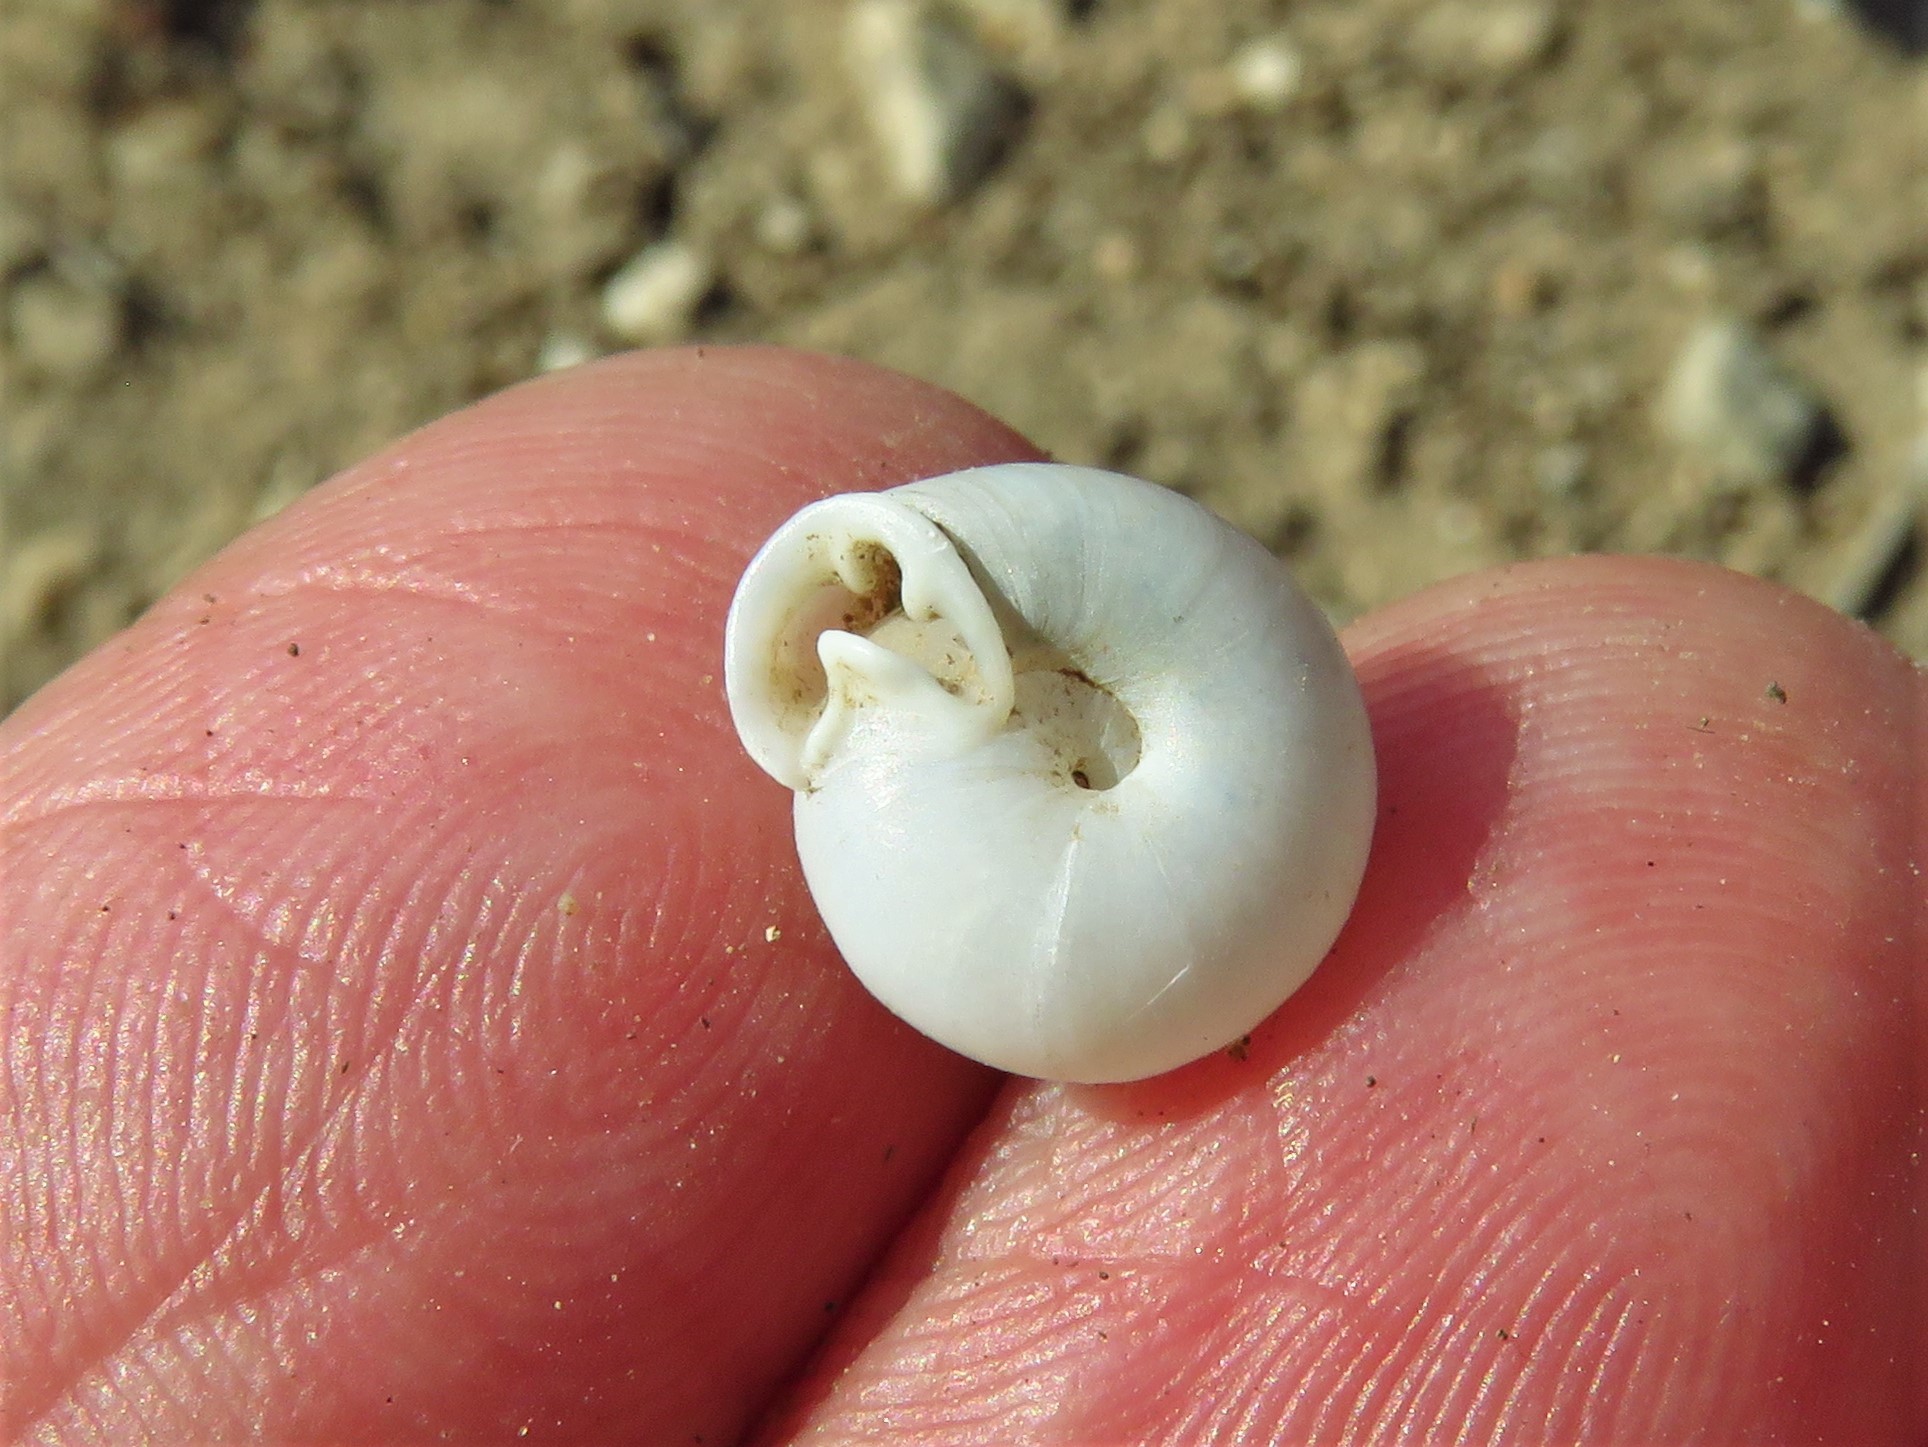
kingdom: Animalia
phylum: Mollusca
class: Gastropoda
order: Stylommatophora
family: Polygyridae
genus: Linisa
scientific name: Linisa texasiana
